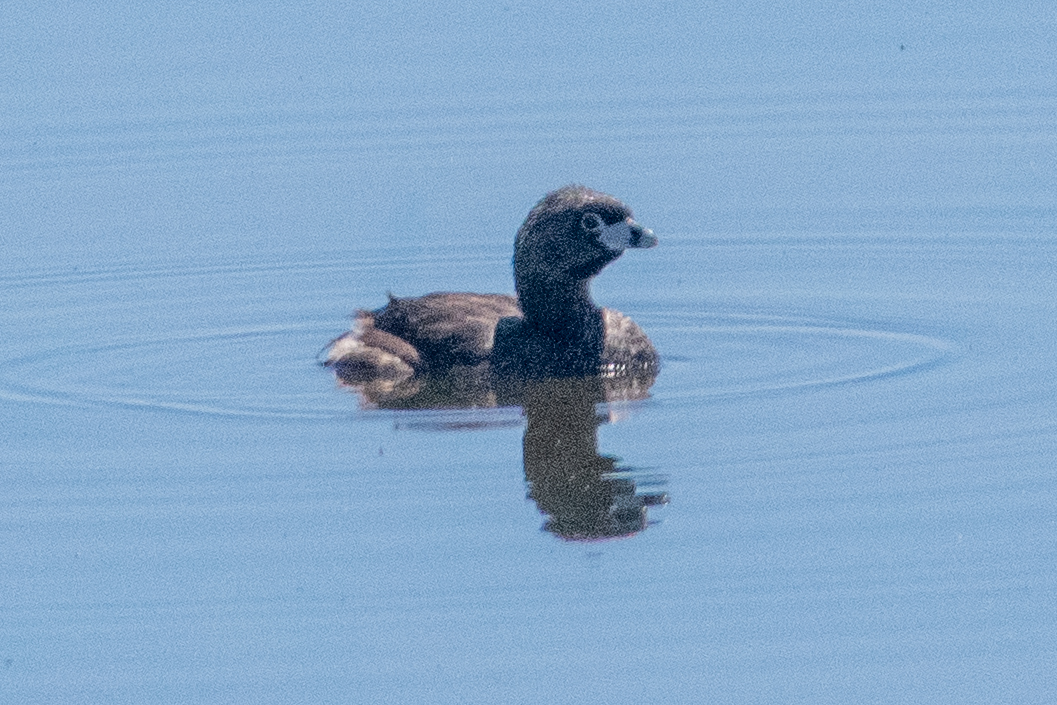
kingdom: Animalia
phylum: Chordata
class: Aves
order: Podicipediformes
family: Podicipedidae
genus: Podilymbus
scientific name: Podilymbus podiceps
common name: Pied-billed grebe
